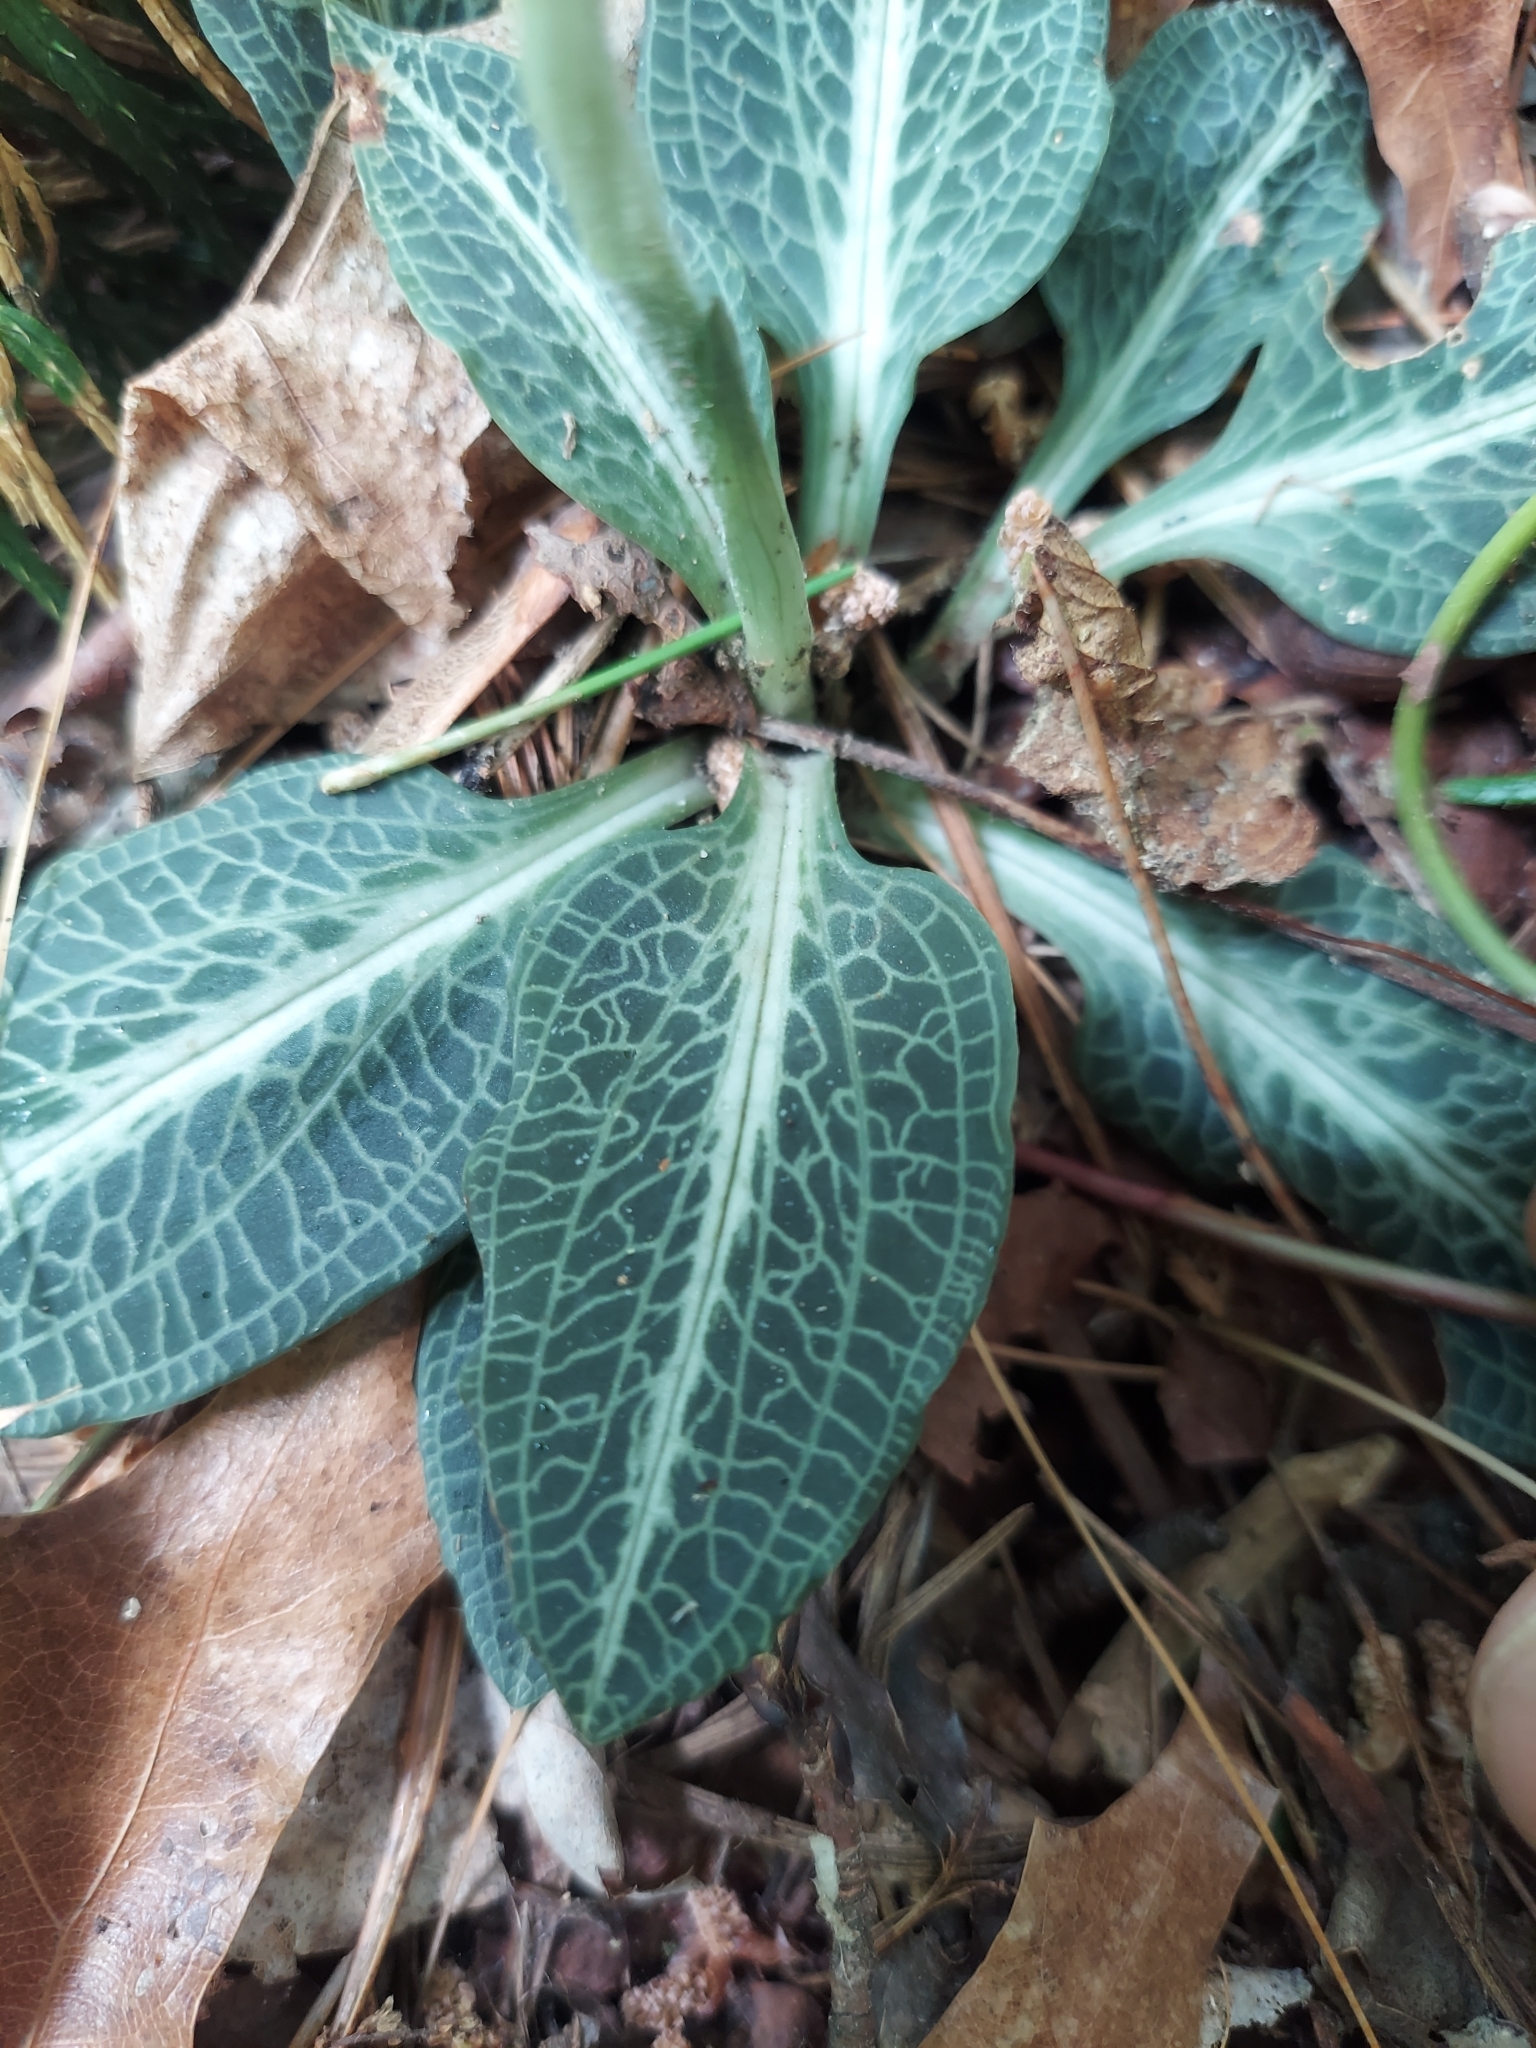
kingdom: Plantae
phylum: Tracheophyta
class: Liliopsida
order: Asparagales
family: Orchidaceae
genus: Goodyera
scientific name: Goodyera pubescens
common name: Downy rattlesnake-plantain
